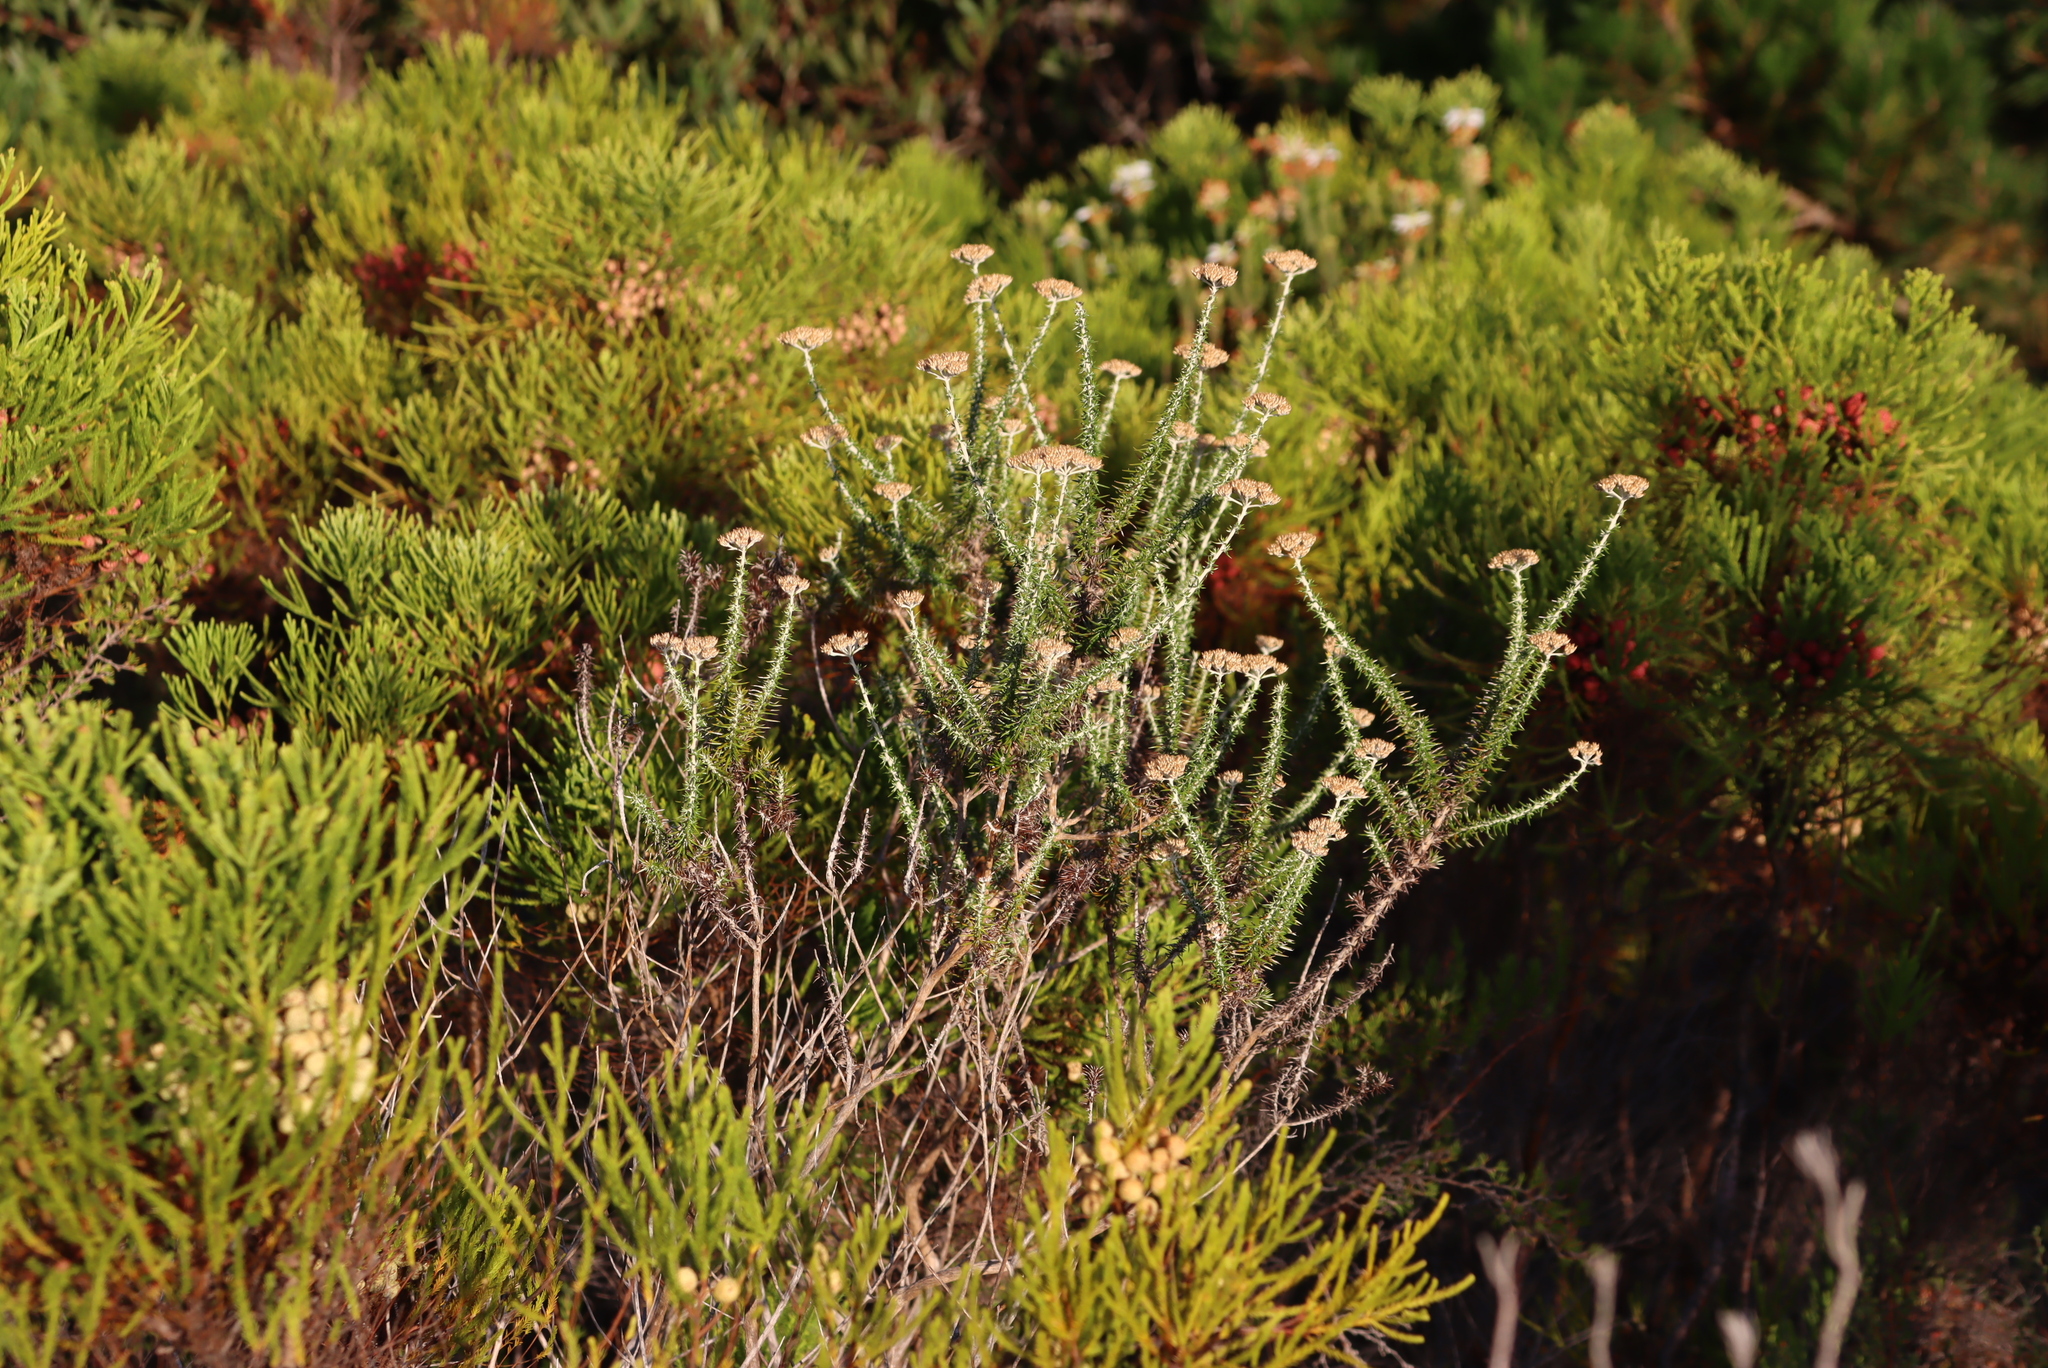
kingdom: Plantae
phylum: Tracheophyta
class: Magnoliopsida
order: Asterales
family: Asteraceae
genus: Metalasia
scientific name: Metalasia densa
